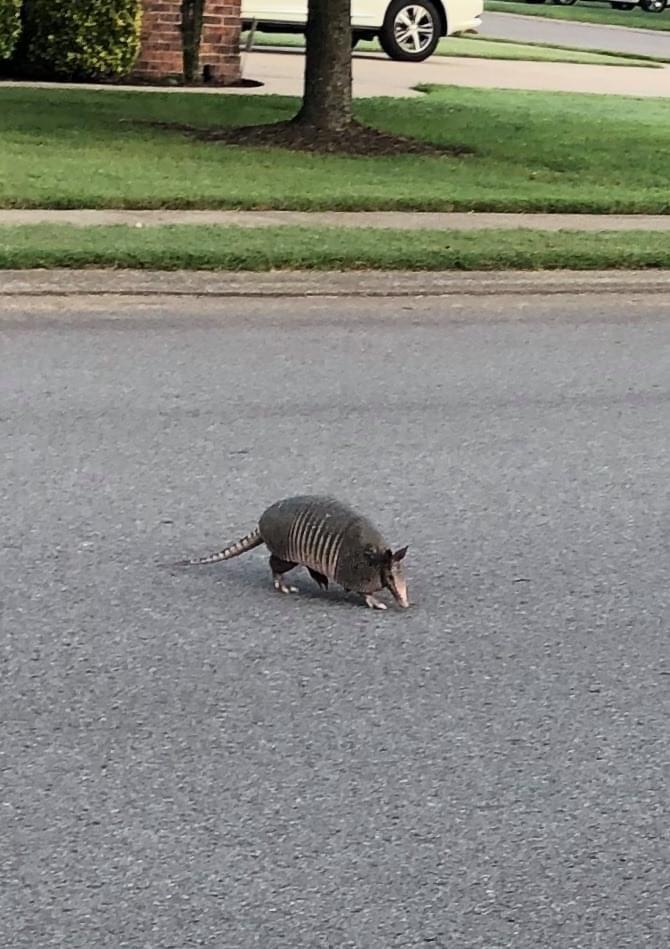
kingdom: Animalia
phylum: Chordata
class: Mammalia
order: Cingulata
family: Dasypodidae
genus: Dasypus
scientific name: Dasypus novemcinctus
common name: Nine-banded armadillo
